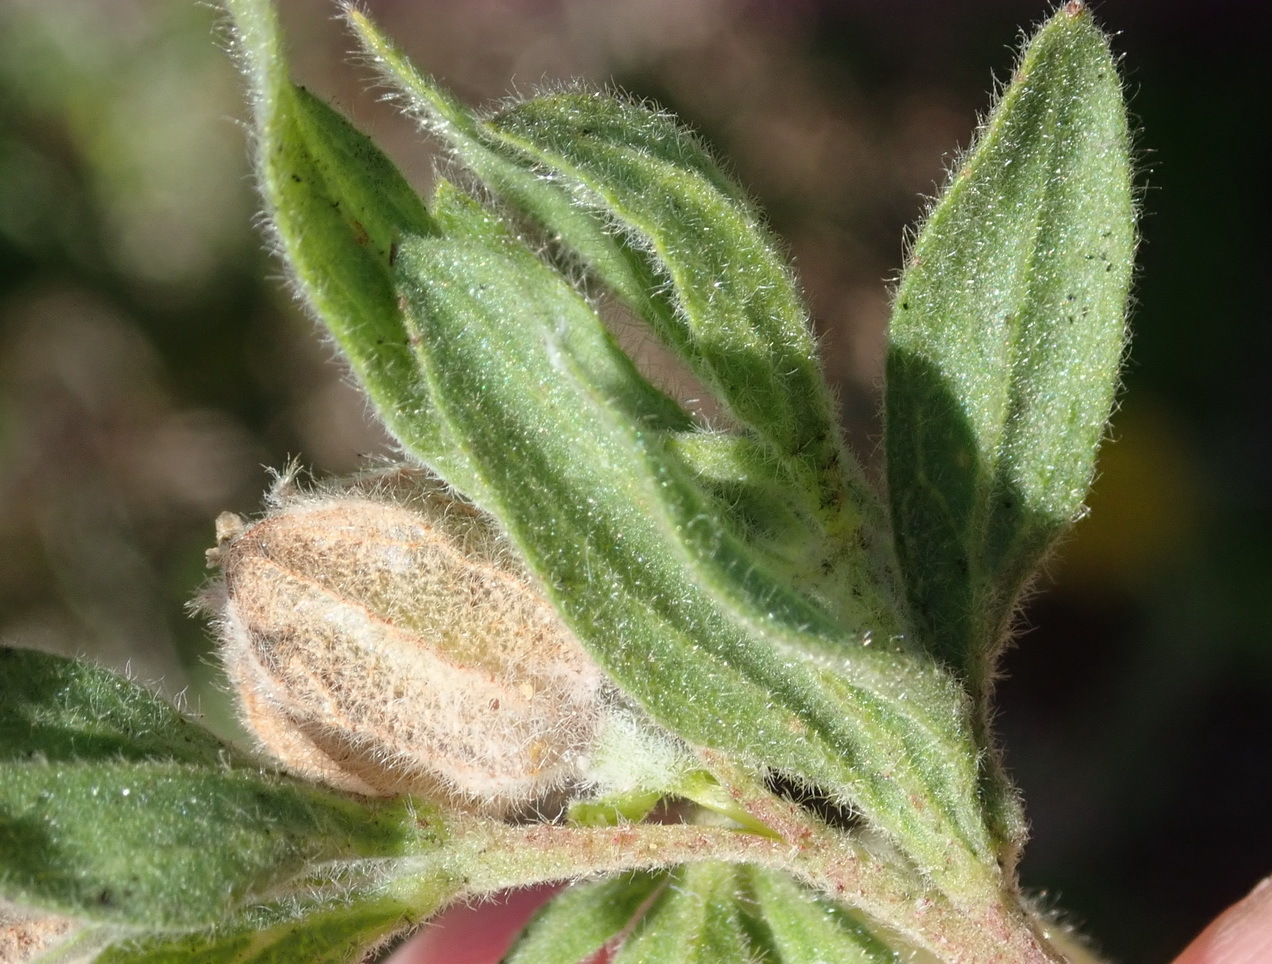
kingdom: Plantae
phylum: Tracheophyta
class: Magnoliopsida
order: Malvales
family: Malvaceae
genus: Hermannia
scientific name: Hermannia hyssopifolia
